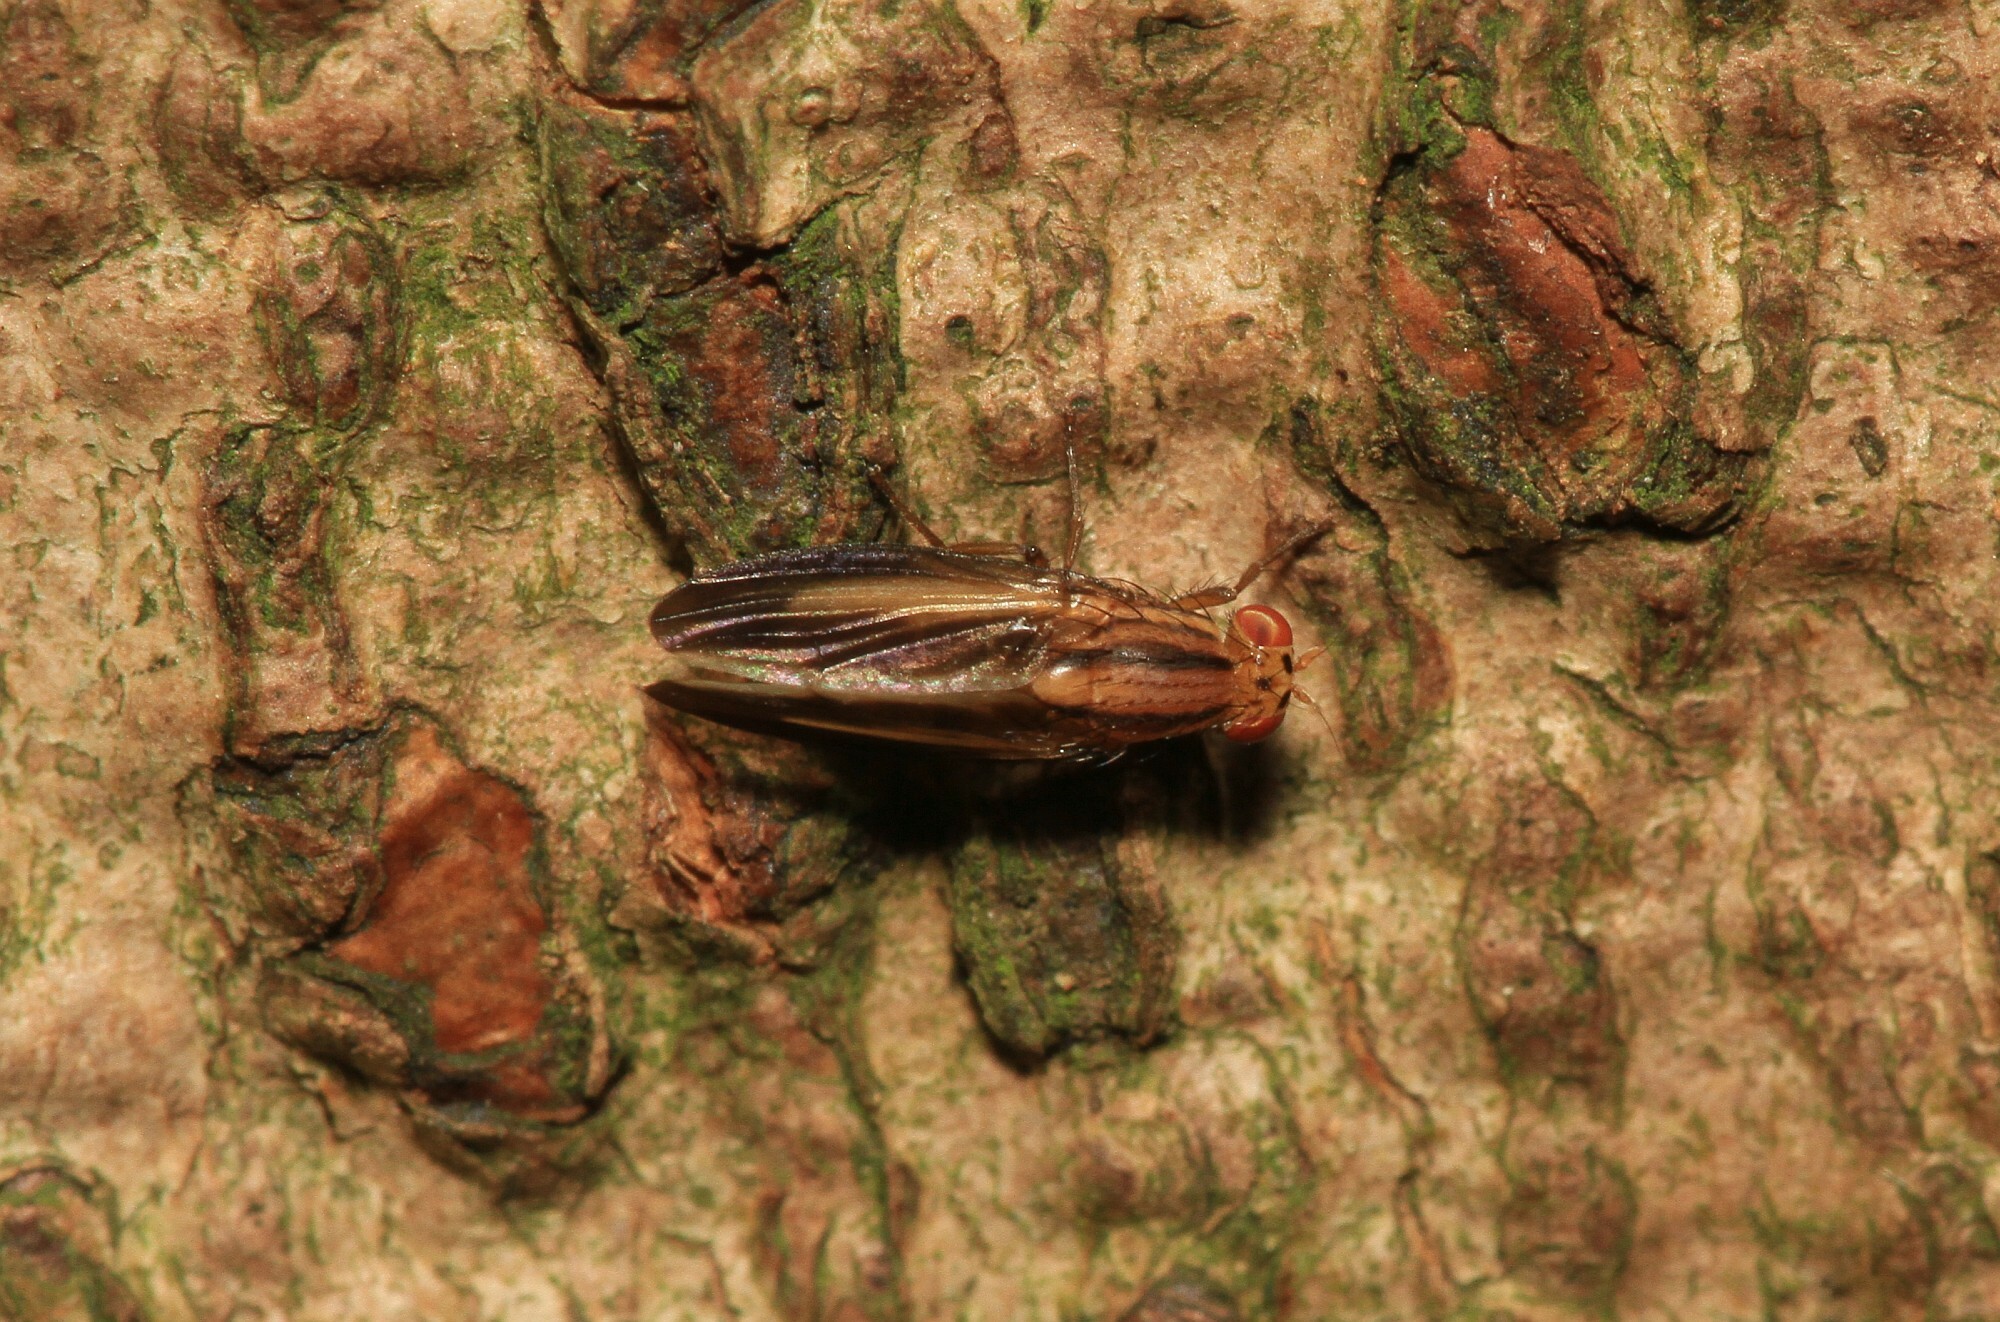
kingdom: Animalia
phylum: Arthropoda
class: Insecta
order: Diptera
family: Lauxaniidae
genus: Peplomyza
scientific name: Peplomyza discoidea
